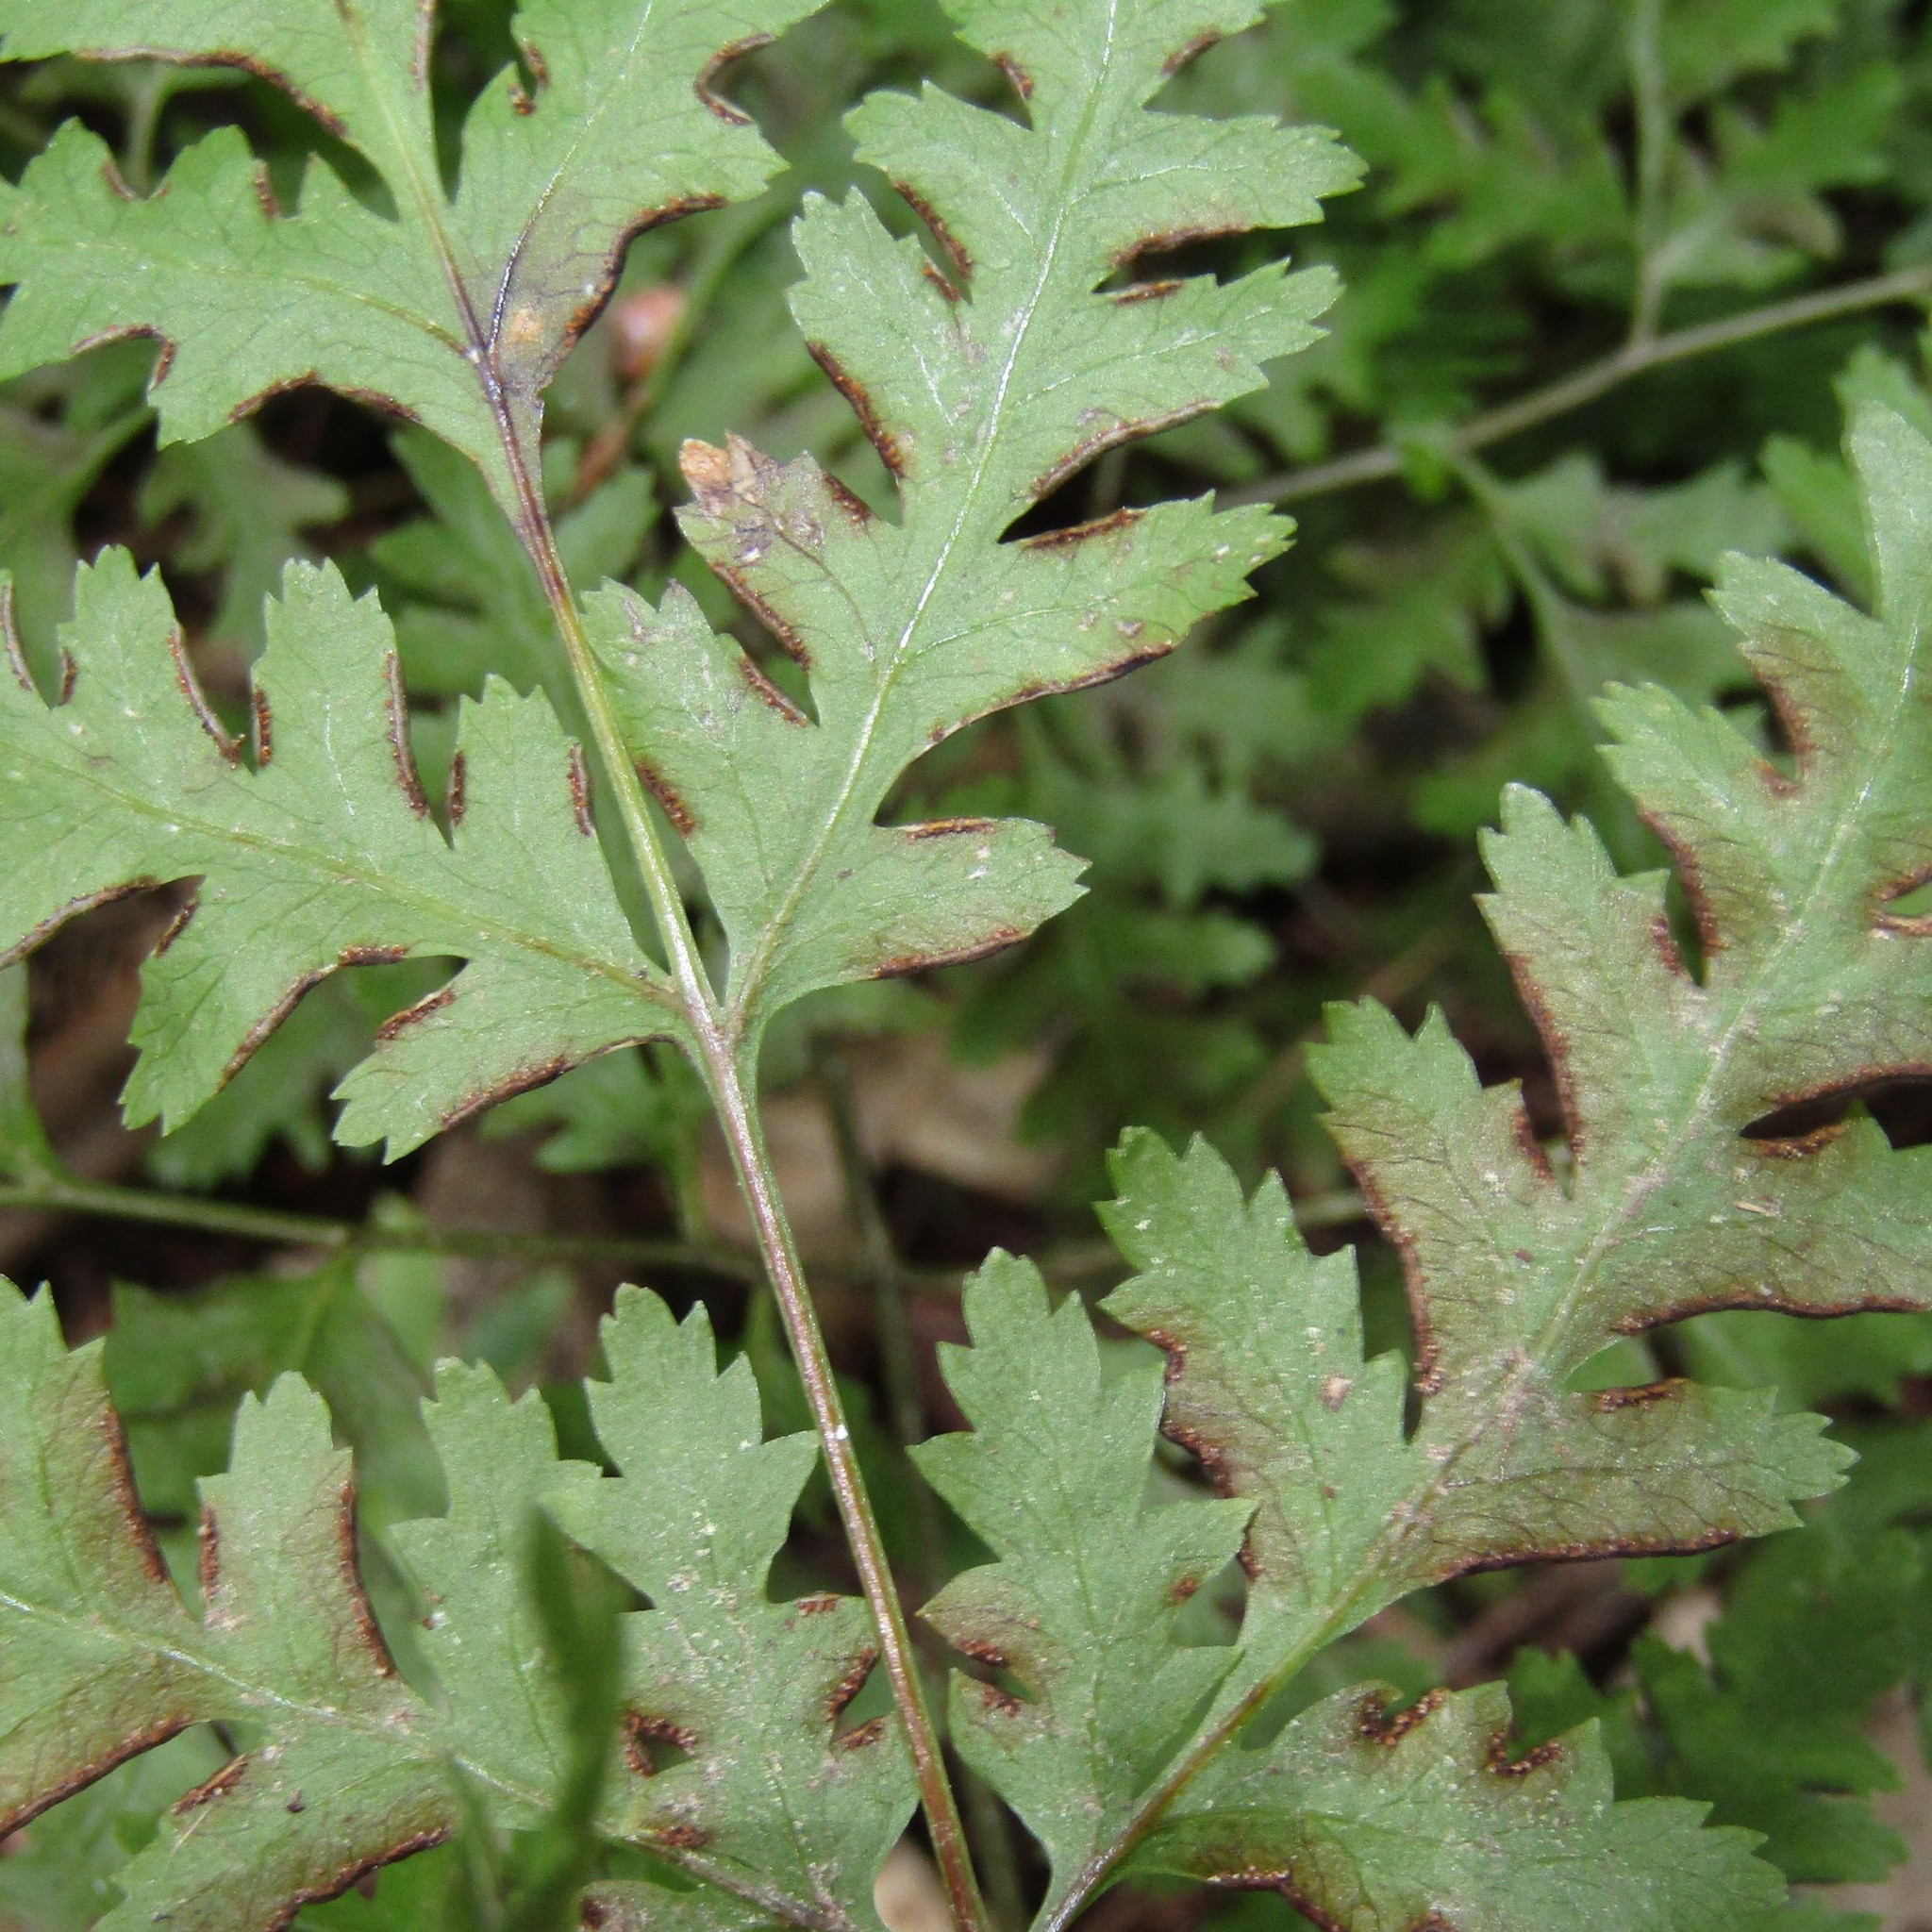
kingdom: Plantae
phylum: Tracheophyta
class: Polypodiopsida
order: Polypodiales
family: Pteridaceae
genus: Pteris
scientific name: Pteris macilenta
